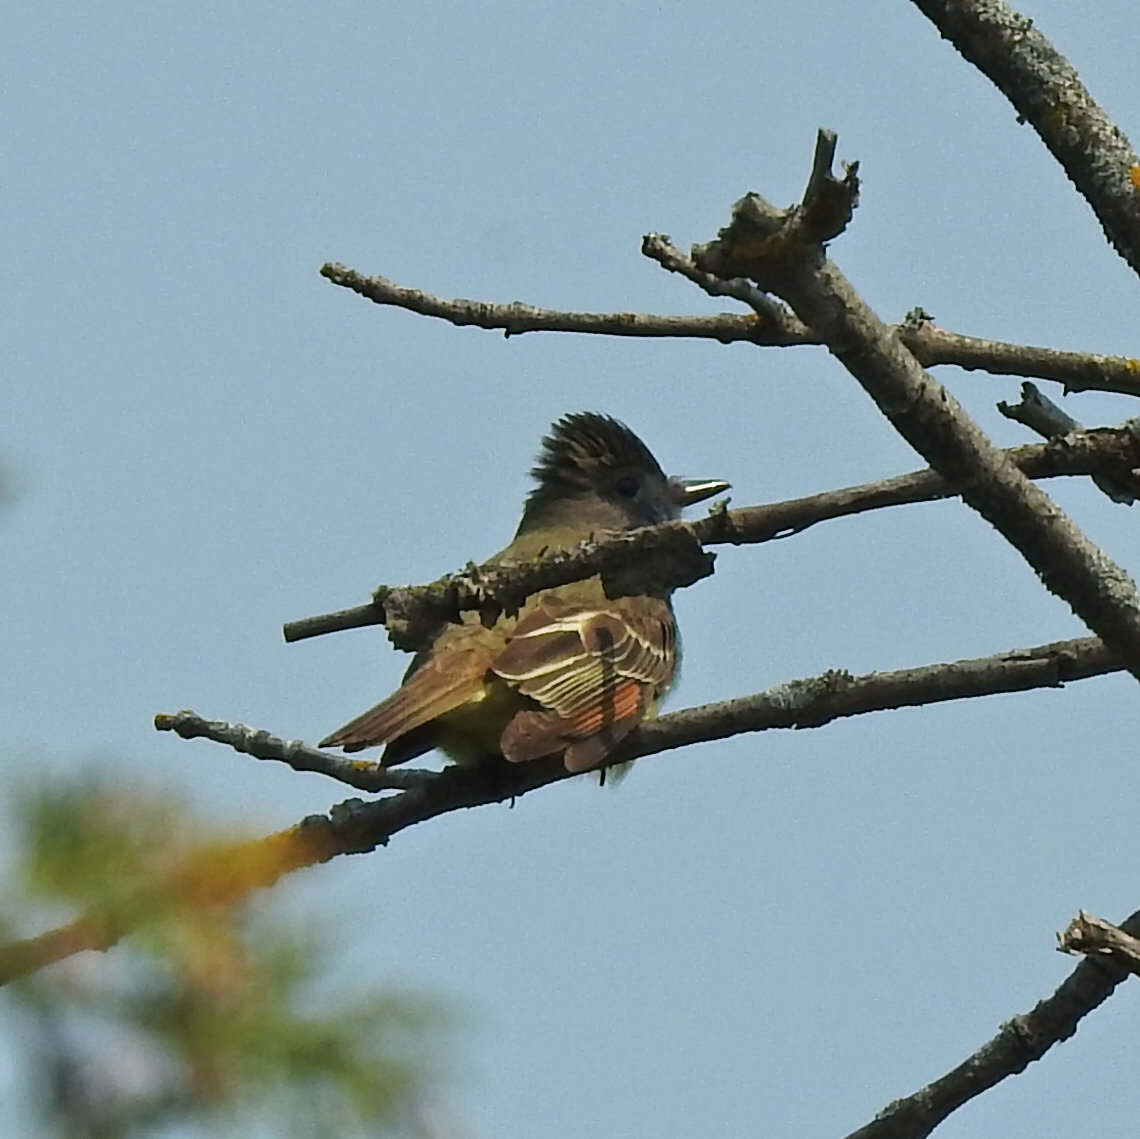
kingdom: Animalia
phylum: Chordata
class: Aves
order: Passeriformes
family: Tyrannidae
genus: Myiarchus
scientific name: Myiarchus crinitus
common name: Great crested flycatcher
